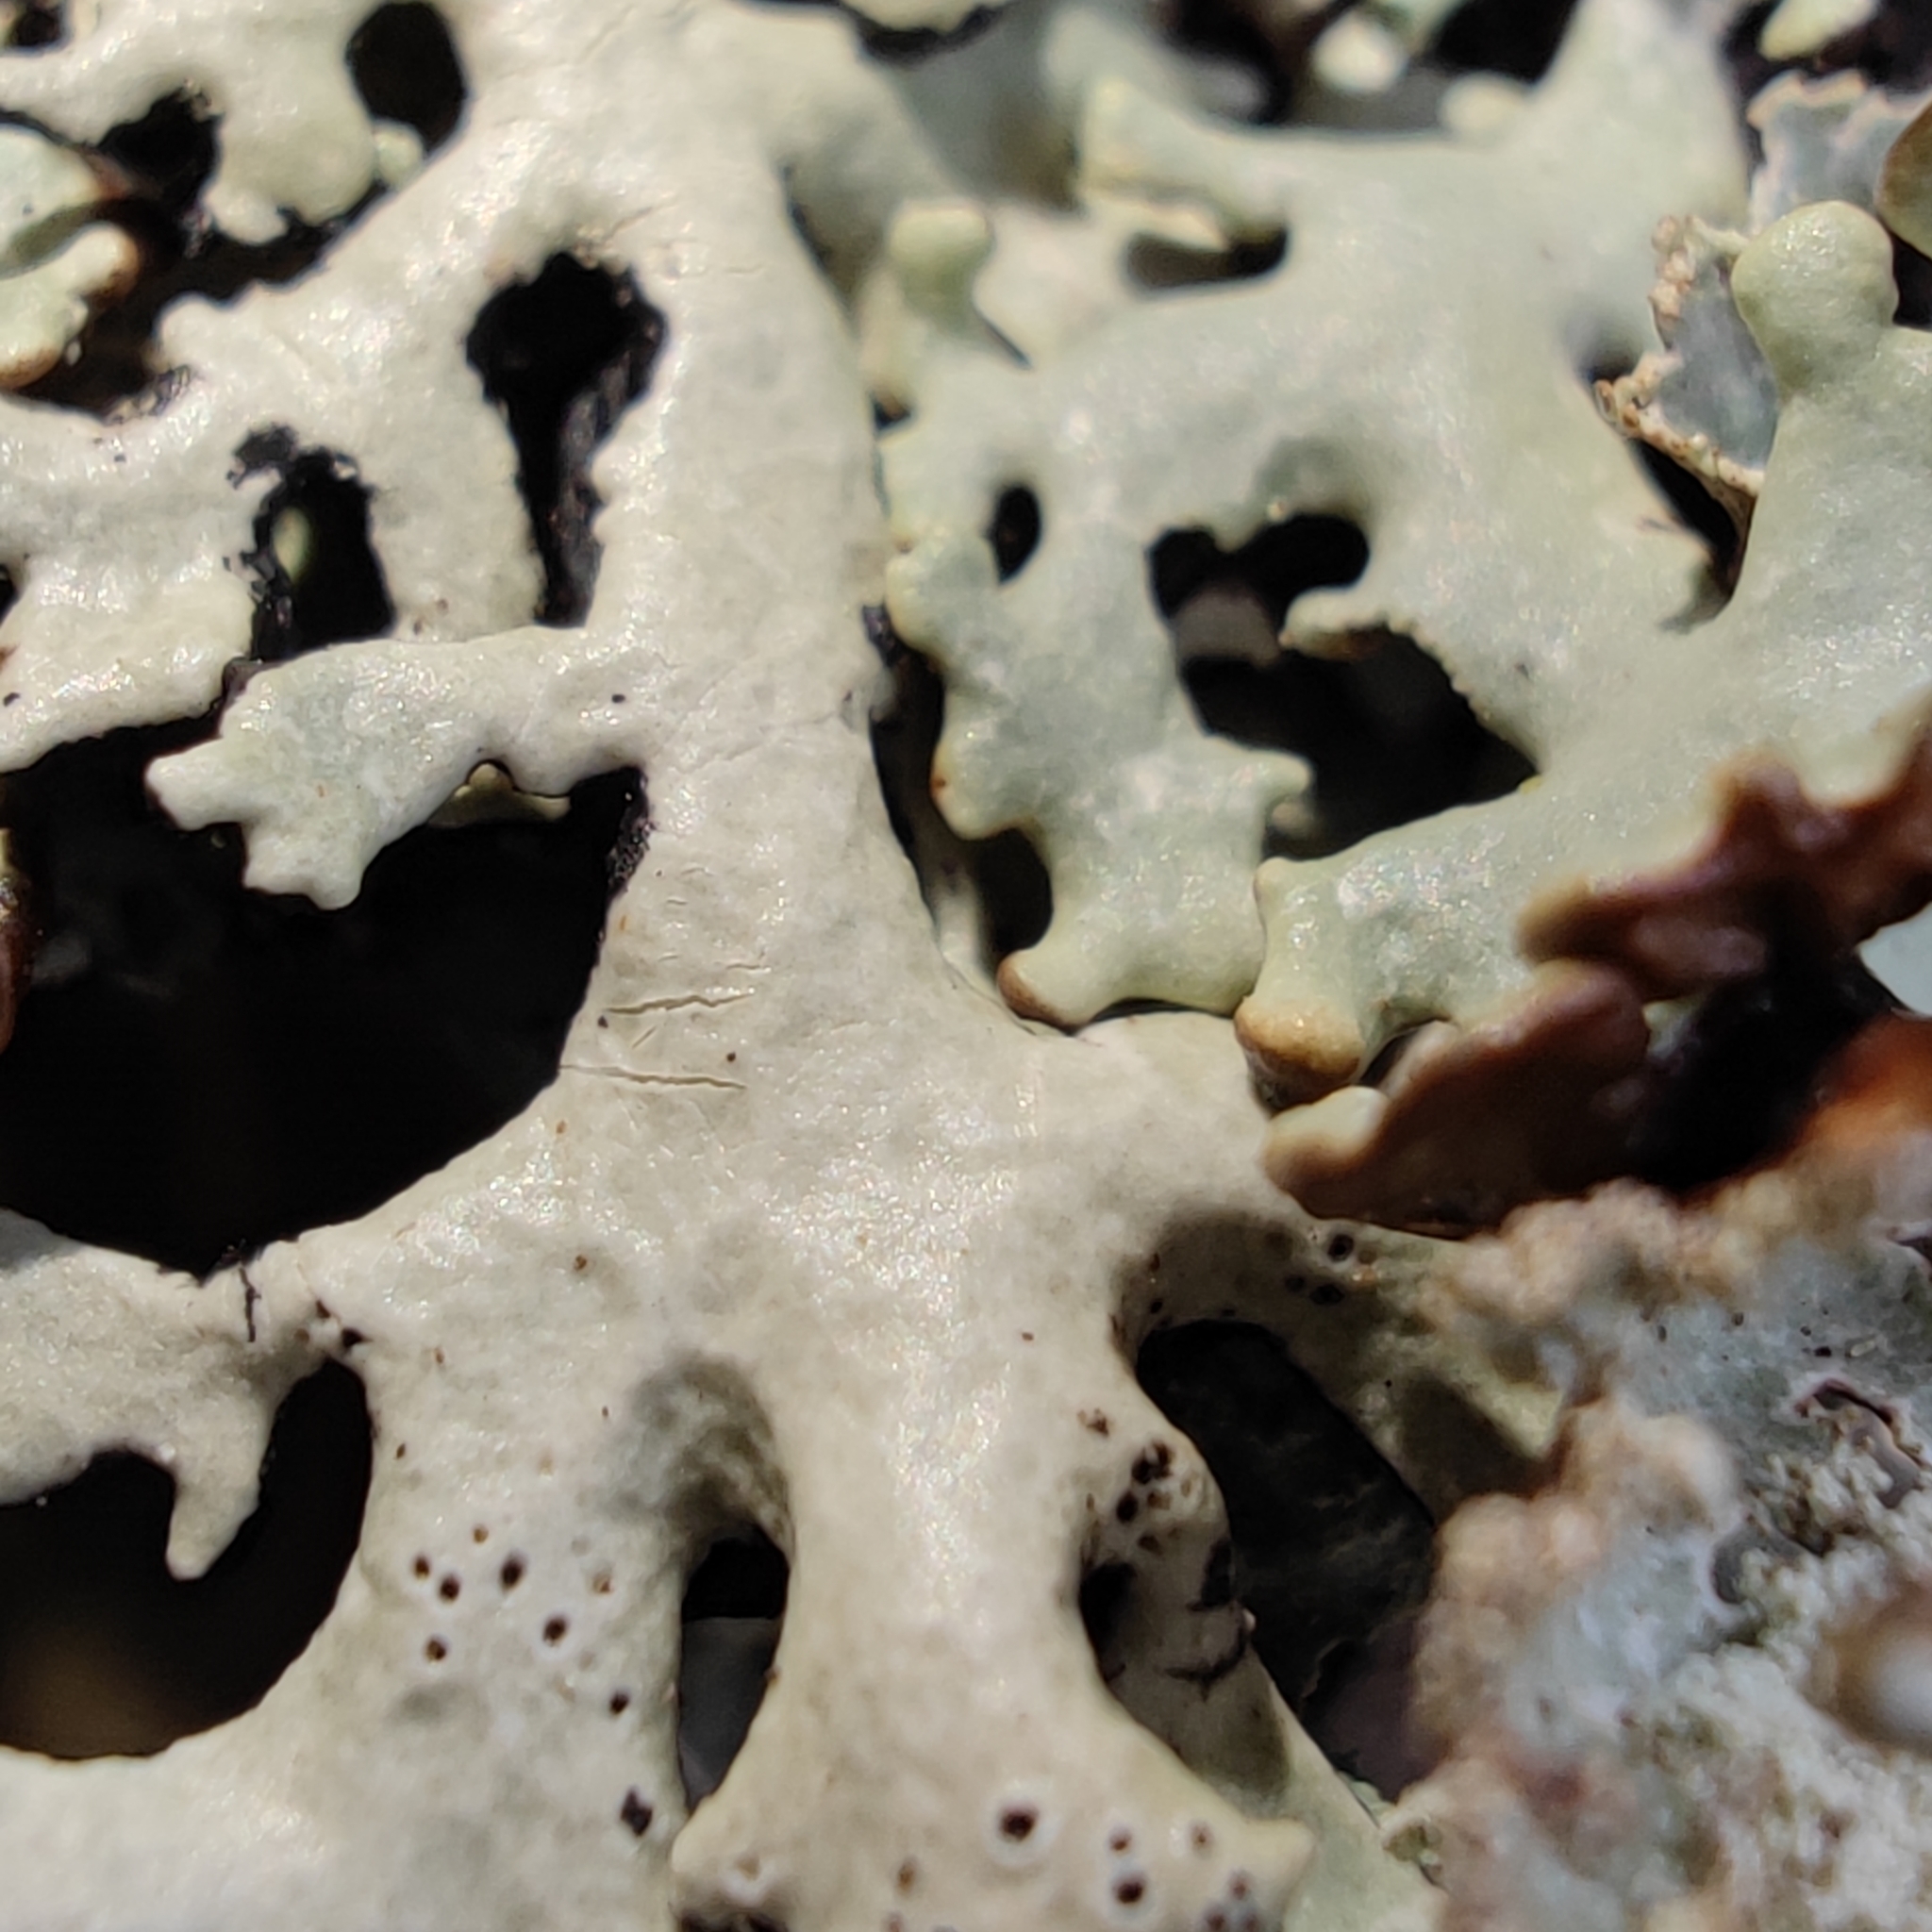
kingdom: Fungi
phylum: Ascomycota
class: Lecanoromycetes
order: Lecanorales
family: Parmeliaceae
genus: Hypogymnia
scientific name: Hypogymnia physodes
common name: Dark crottle
